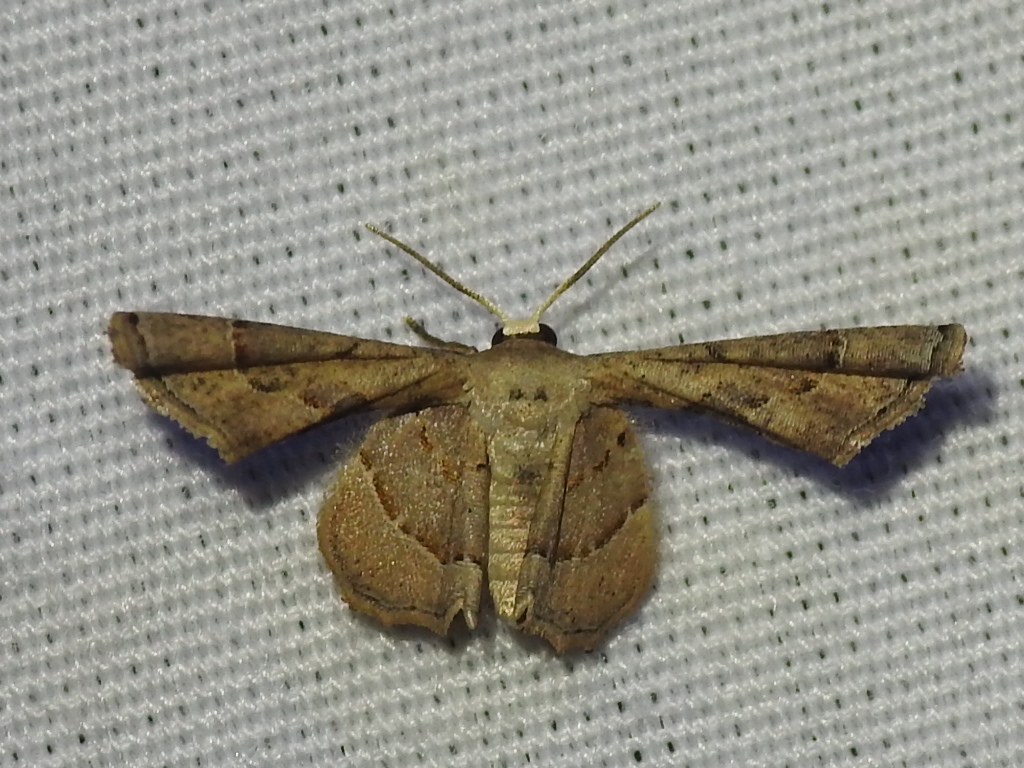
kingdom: Animalia
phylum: Arthropoda
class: Insecta
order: Lepidoptera
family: Uraniidae
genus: Antiplecta
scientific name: Antiplecta triangularis
